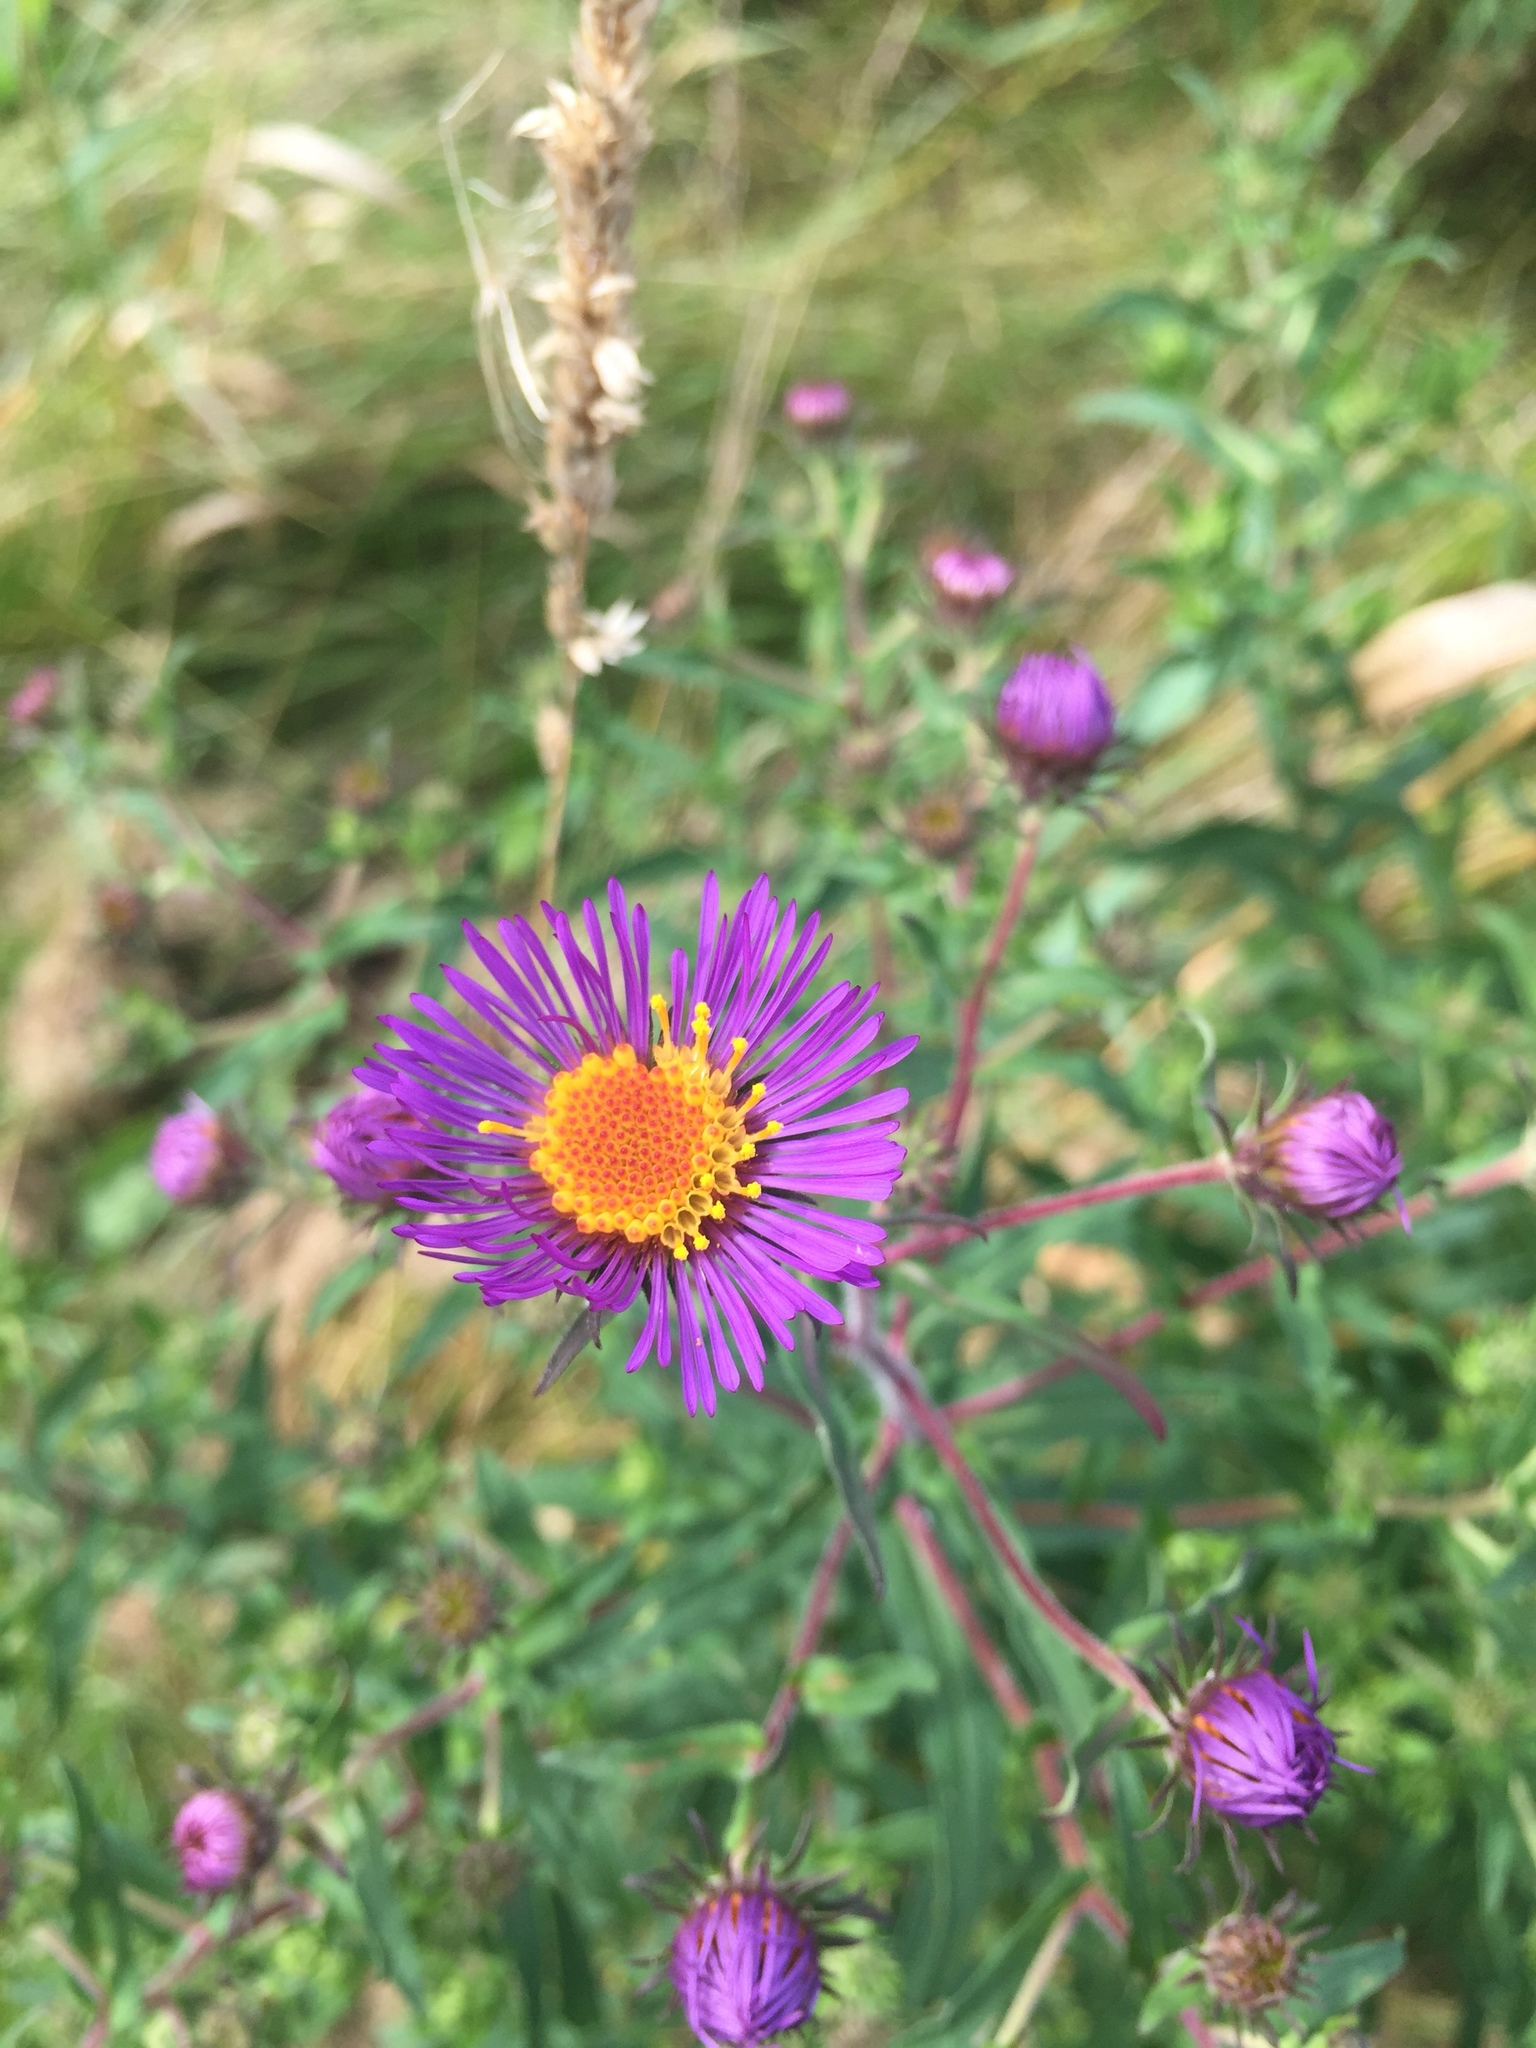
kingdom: Plantae
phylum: Tracheophyta
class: Magnoliopsida
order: Asterales
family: Asteraceae
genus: Symphyotrichum
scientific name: Symphyotrichum novae-angliae
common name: Michaelmas daisy
